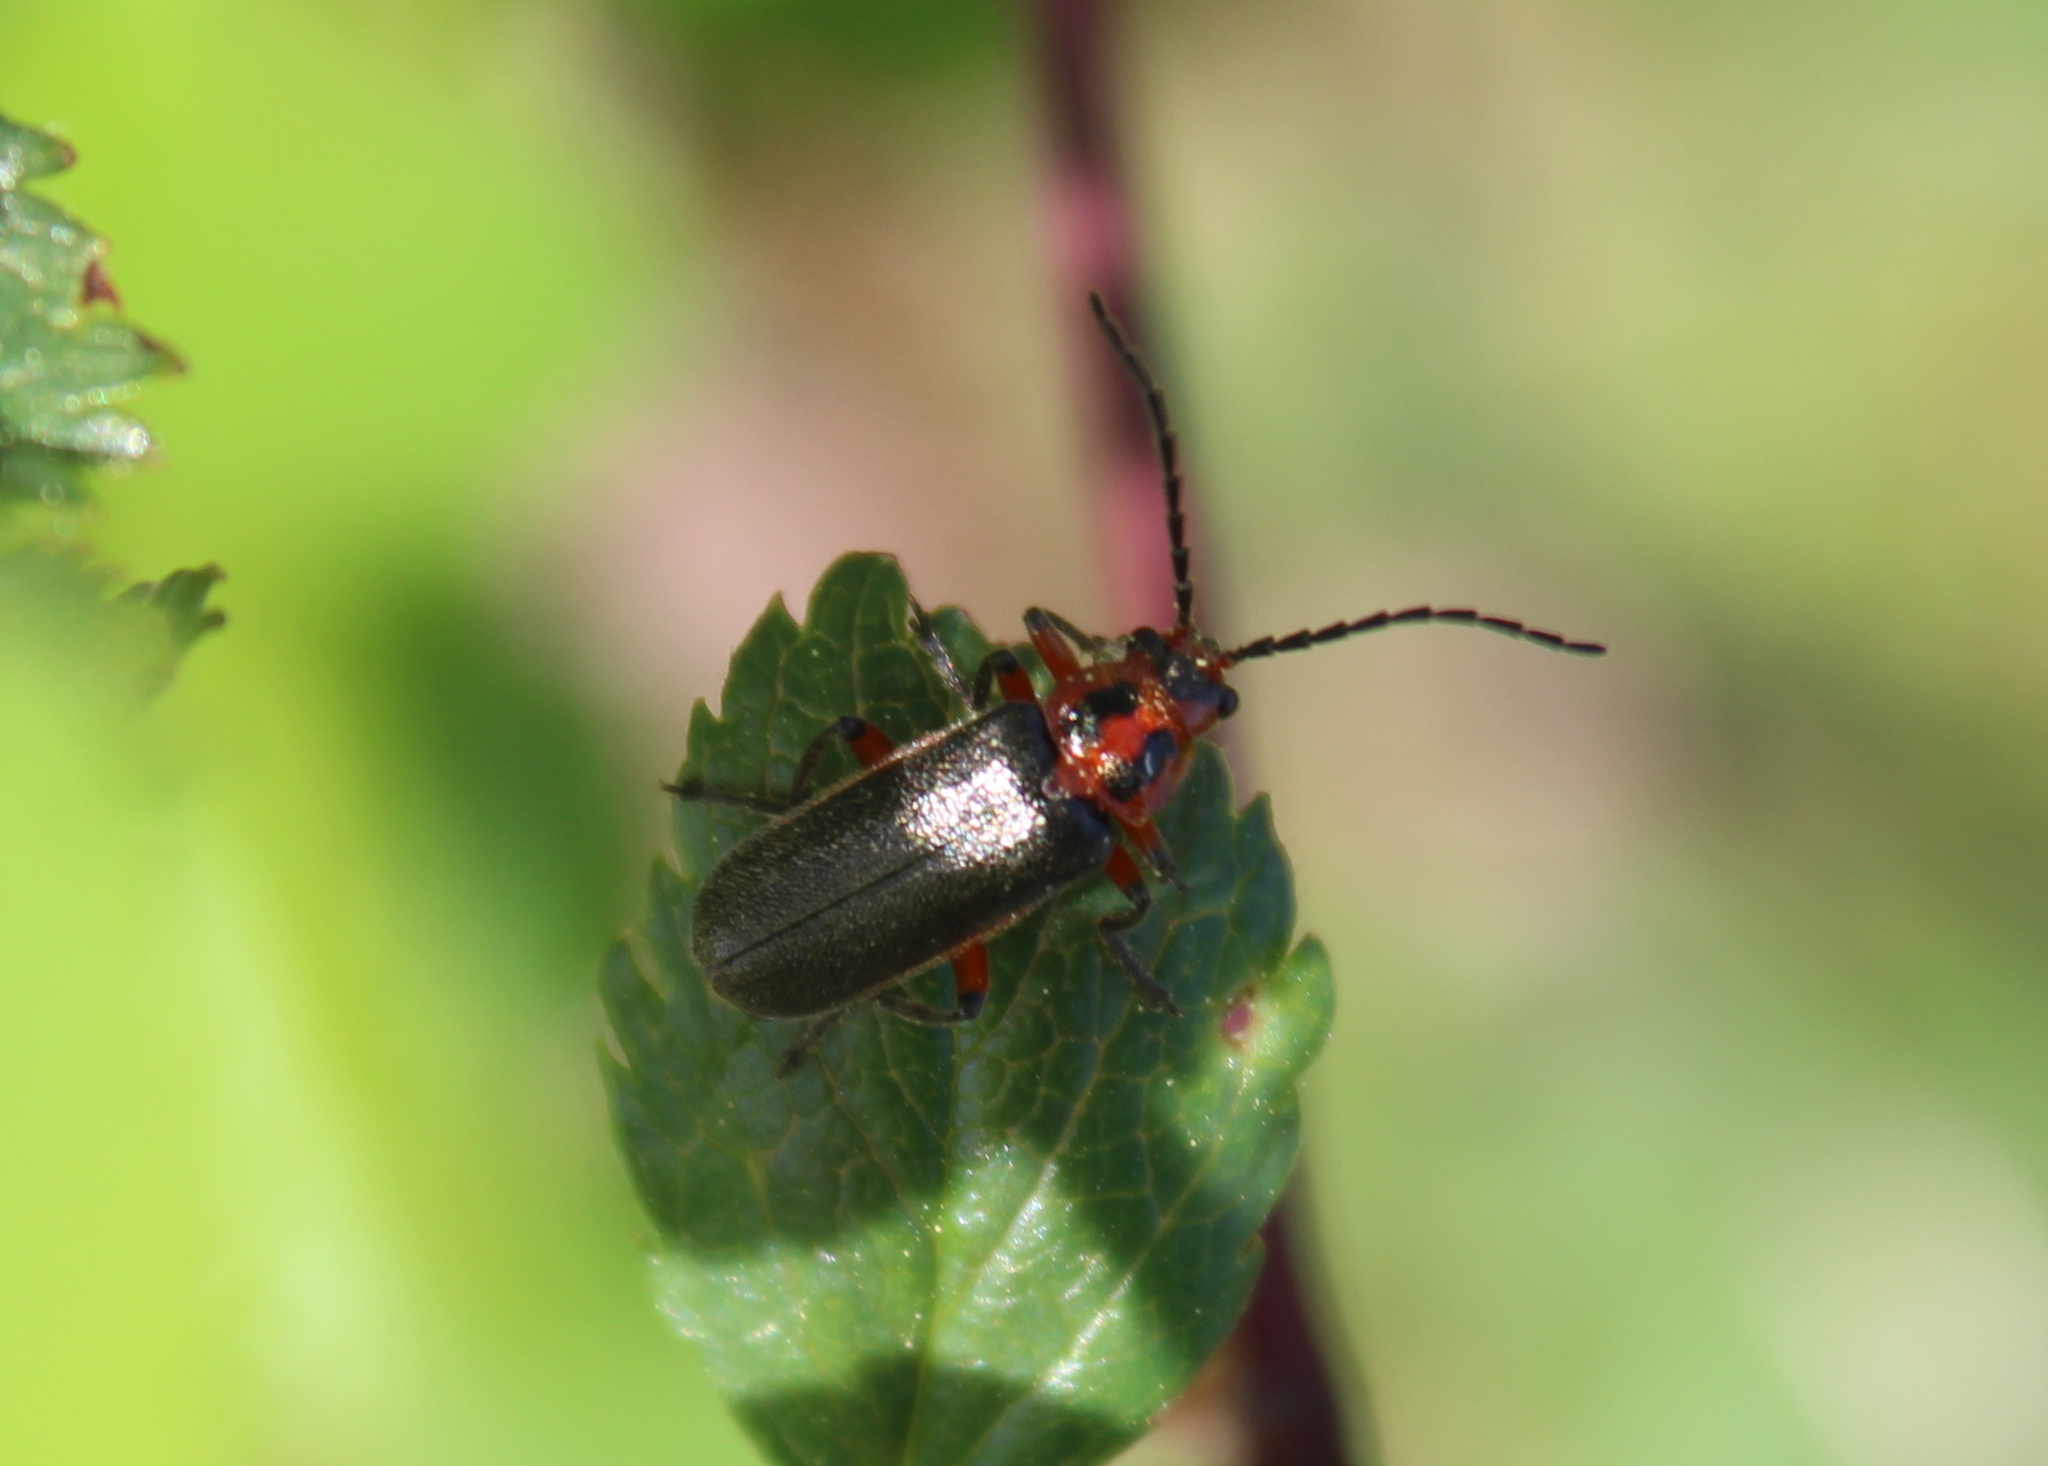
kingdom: Animalia
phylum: Arthropoda
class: Insecta
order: Coleoptera
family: Cantharidae
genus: Atalantycha
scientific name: Atalantycha bilineata
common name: Two-lined leatherwing
